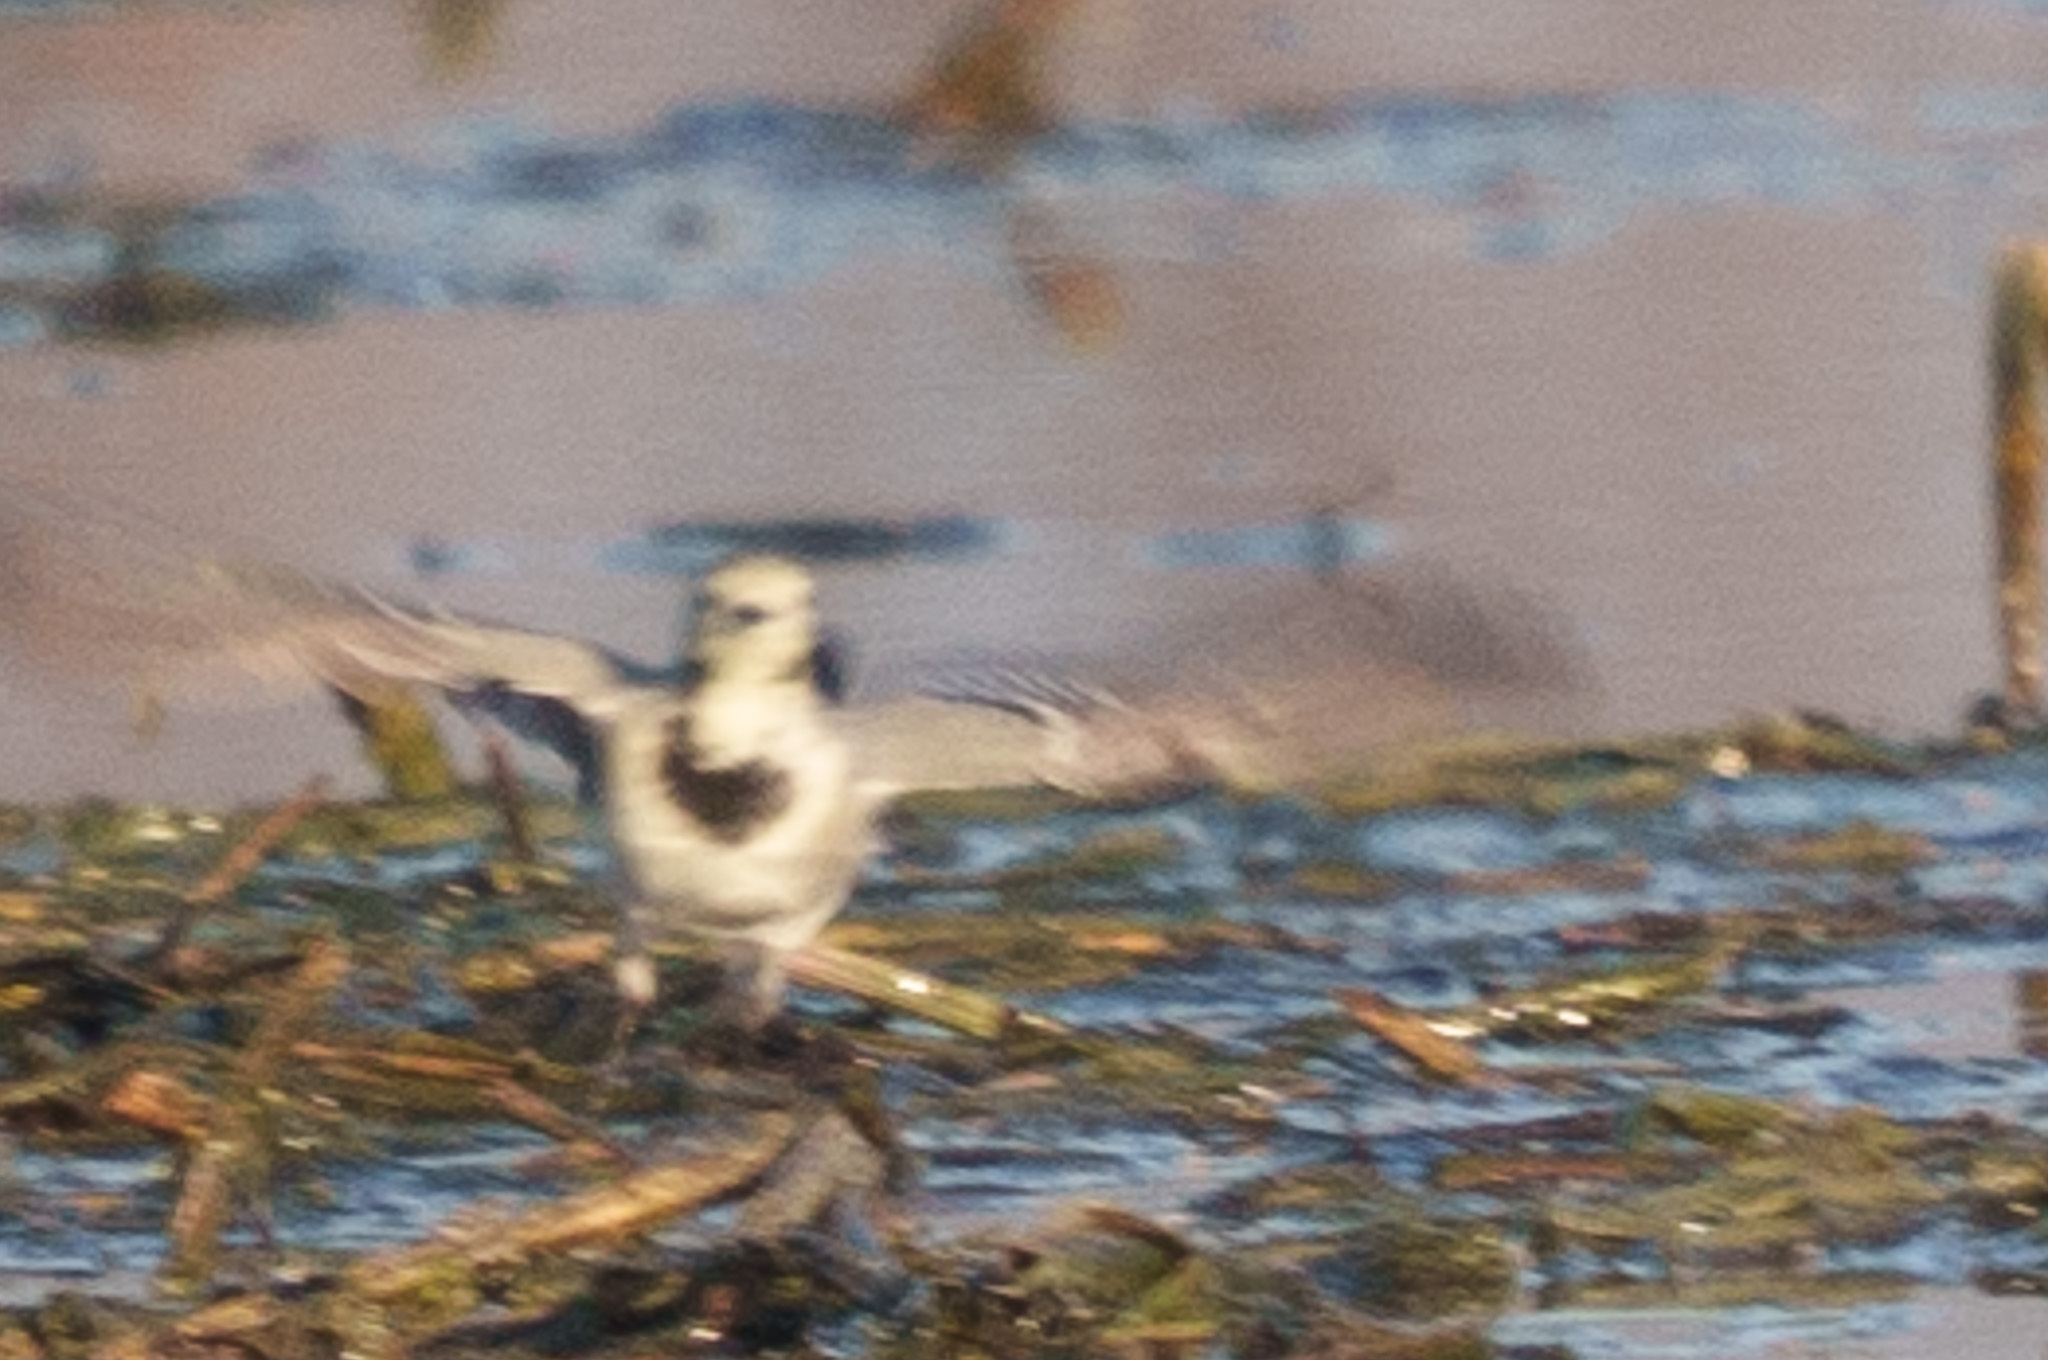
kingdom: Animalia
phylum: Chordata
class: Aves
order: Passeriformes
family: Motacillidae
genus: Motacilla
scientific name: Motacilla alba
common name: White wagtail
